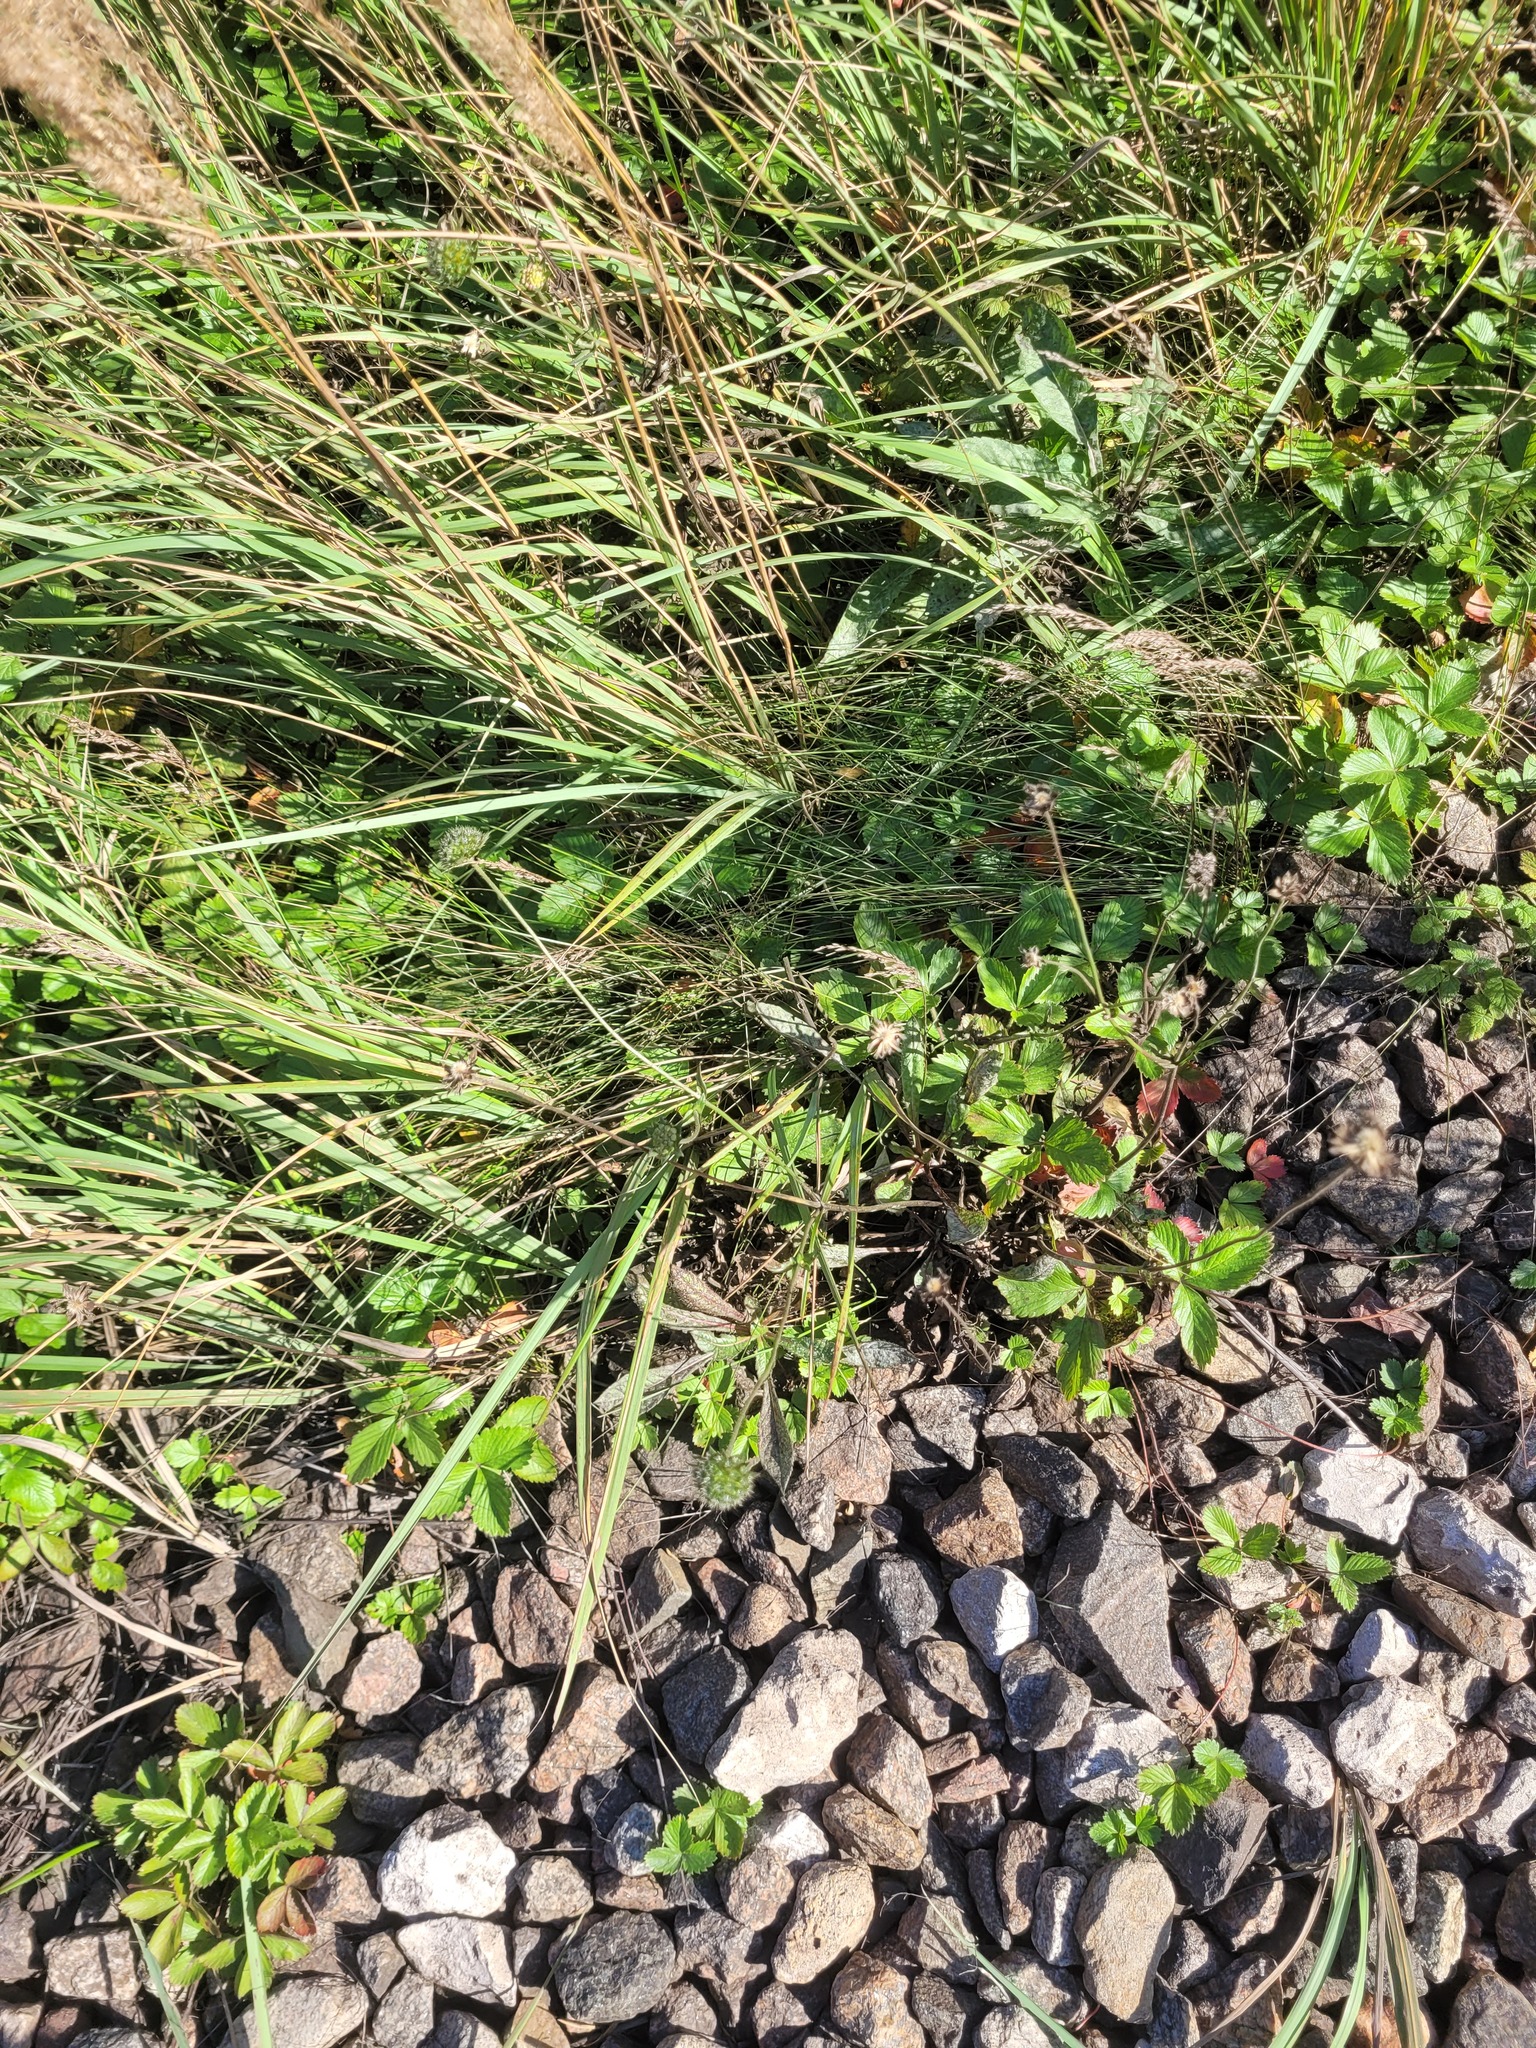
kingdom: Plantae
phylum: Tracheophyta
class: Magnoliopsida
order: Dipsacales
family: Caprifoliaceae
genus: Knautia
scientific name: Knautia arvensis
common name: Field scabiosa
